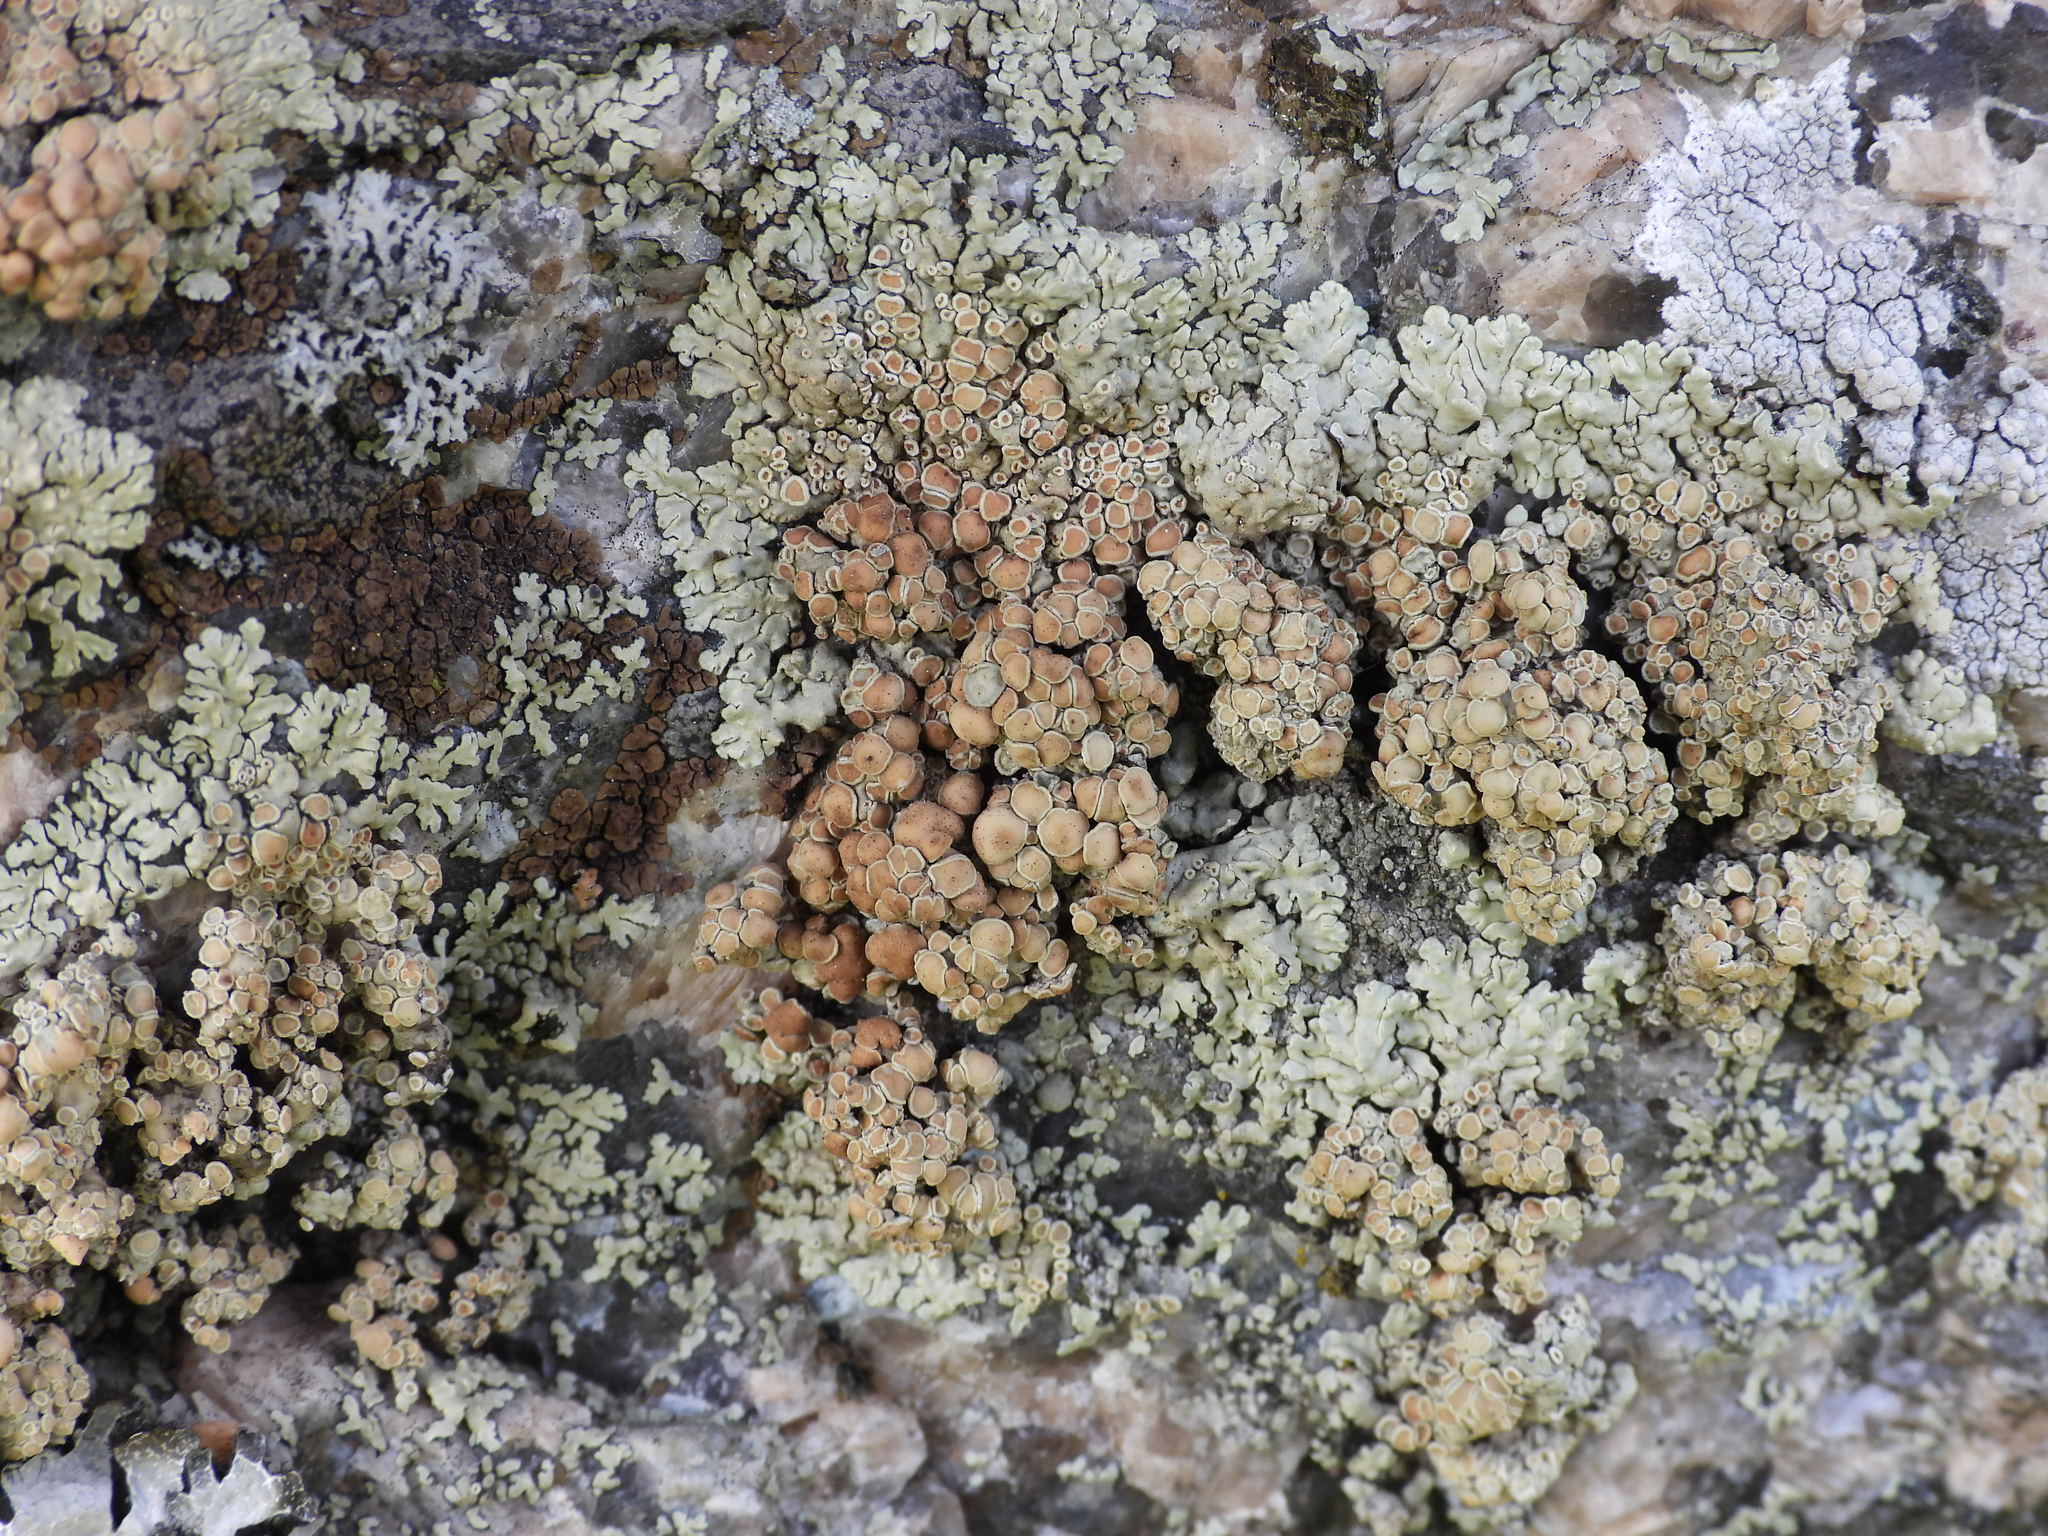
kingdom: Fungi
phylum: Ascomycota
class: Lecanoromycetes
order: Lecanorales
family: Lecanoraceae
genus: Protoparmeliopsis
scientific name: Protoparmeliopsis muralis
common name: Stonewall rim lichen
